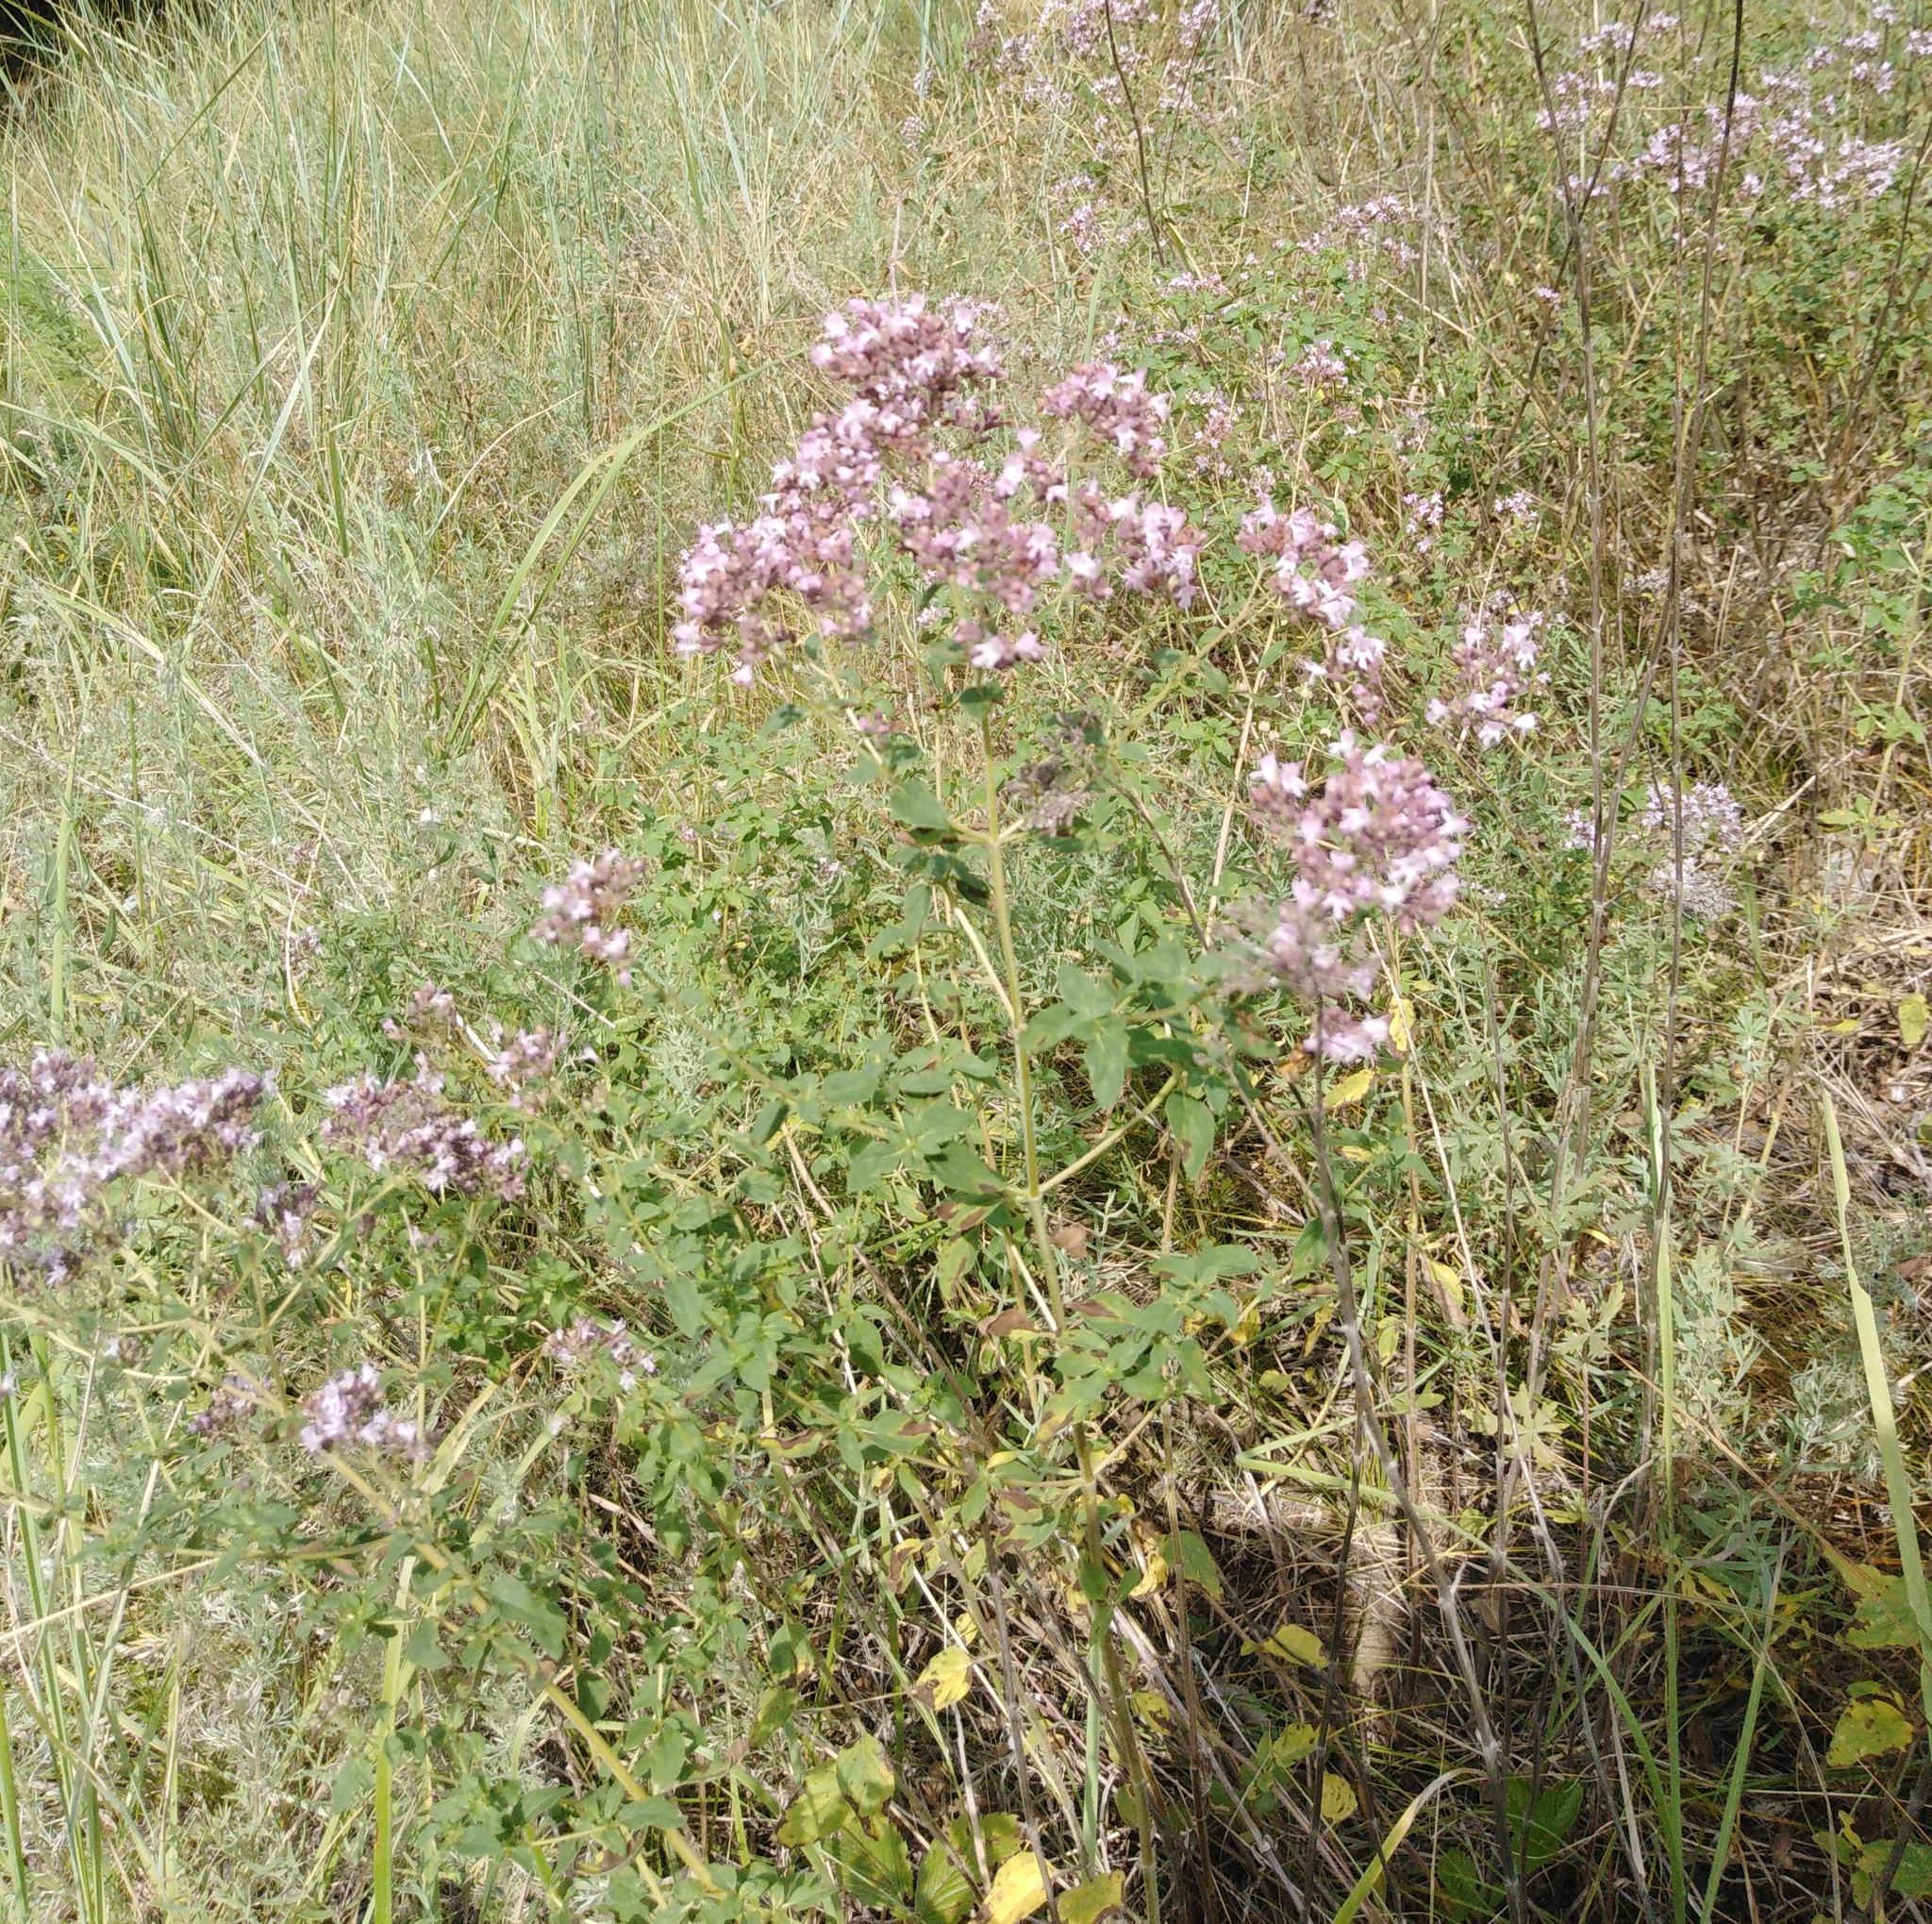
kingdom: Plantae
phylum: Tracheophyta
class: Magnoliopsida
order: Lamiales
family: Lamiaceae
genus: Origanum
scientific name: Origanum vulgare
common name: Wild marjoram
